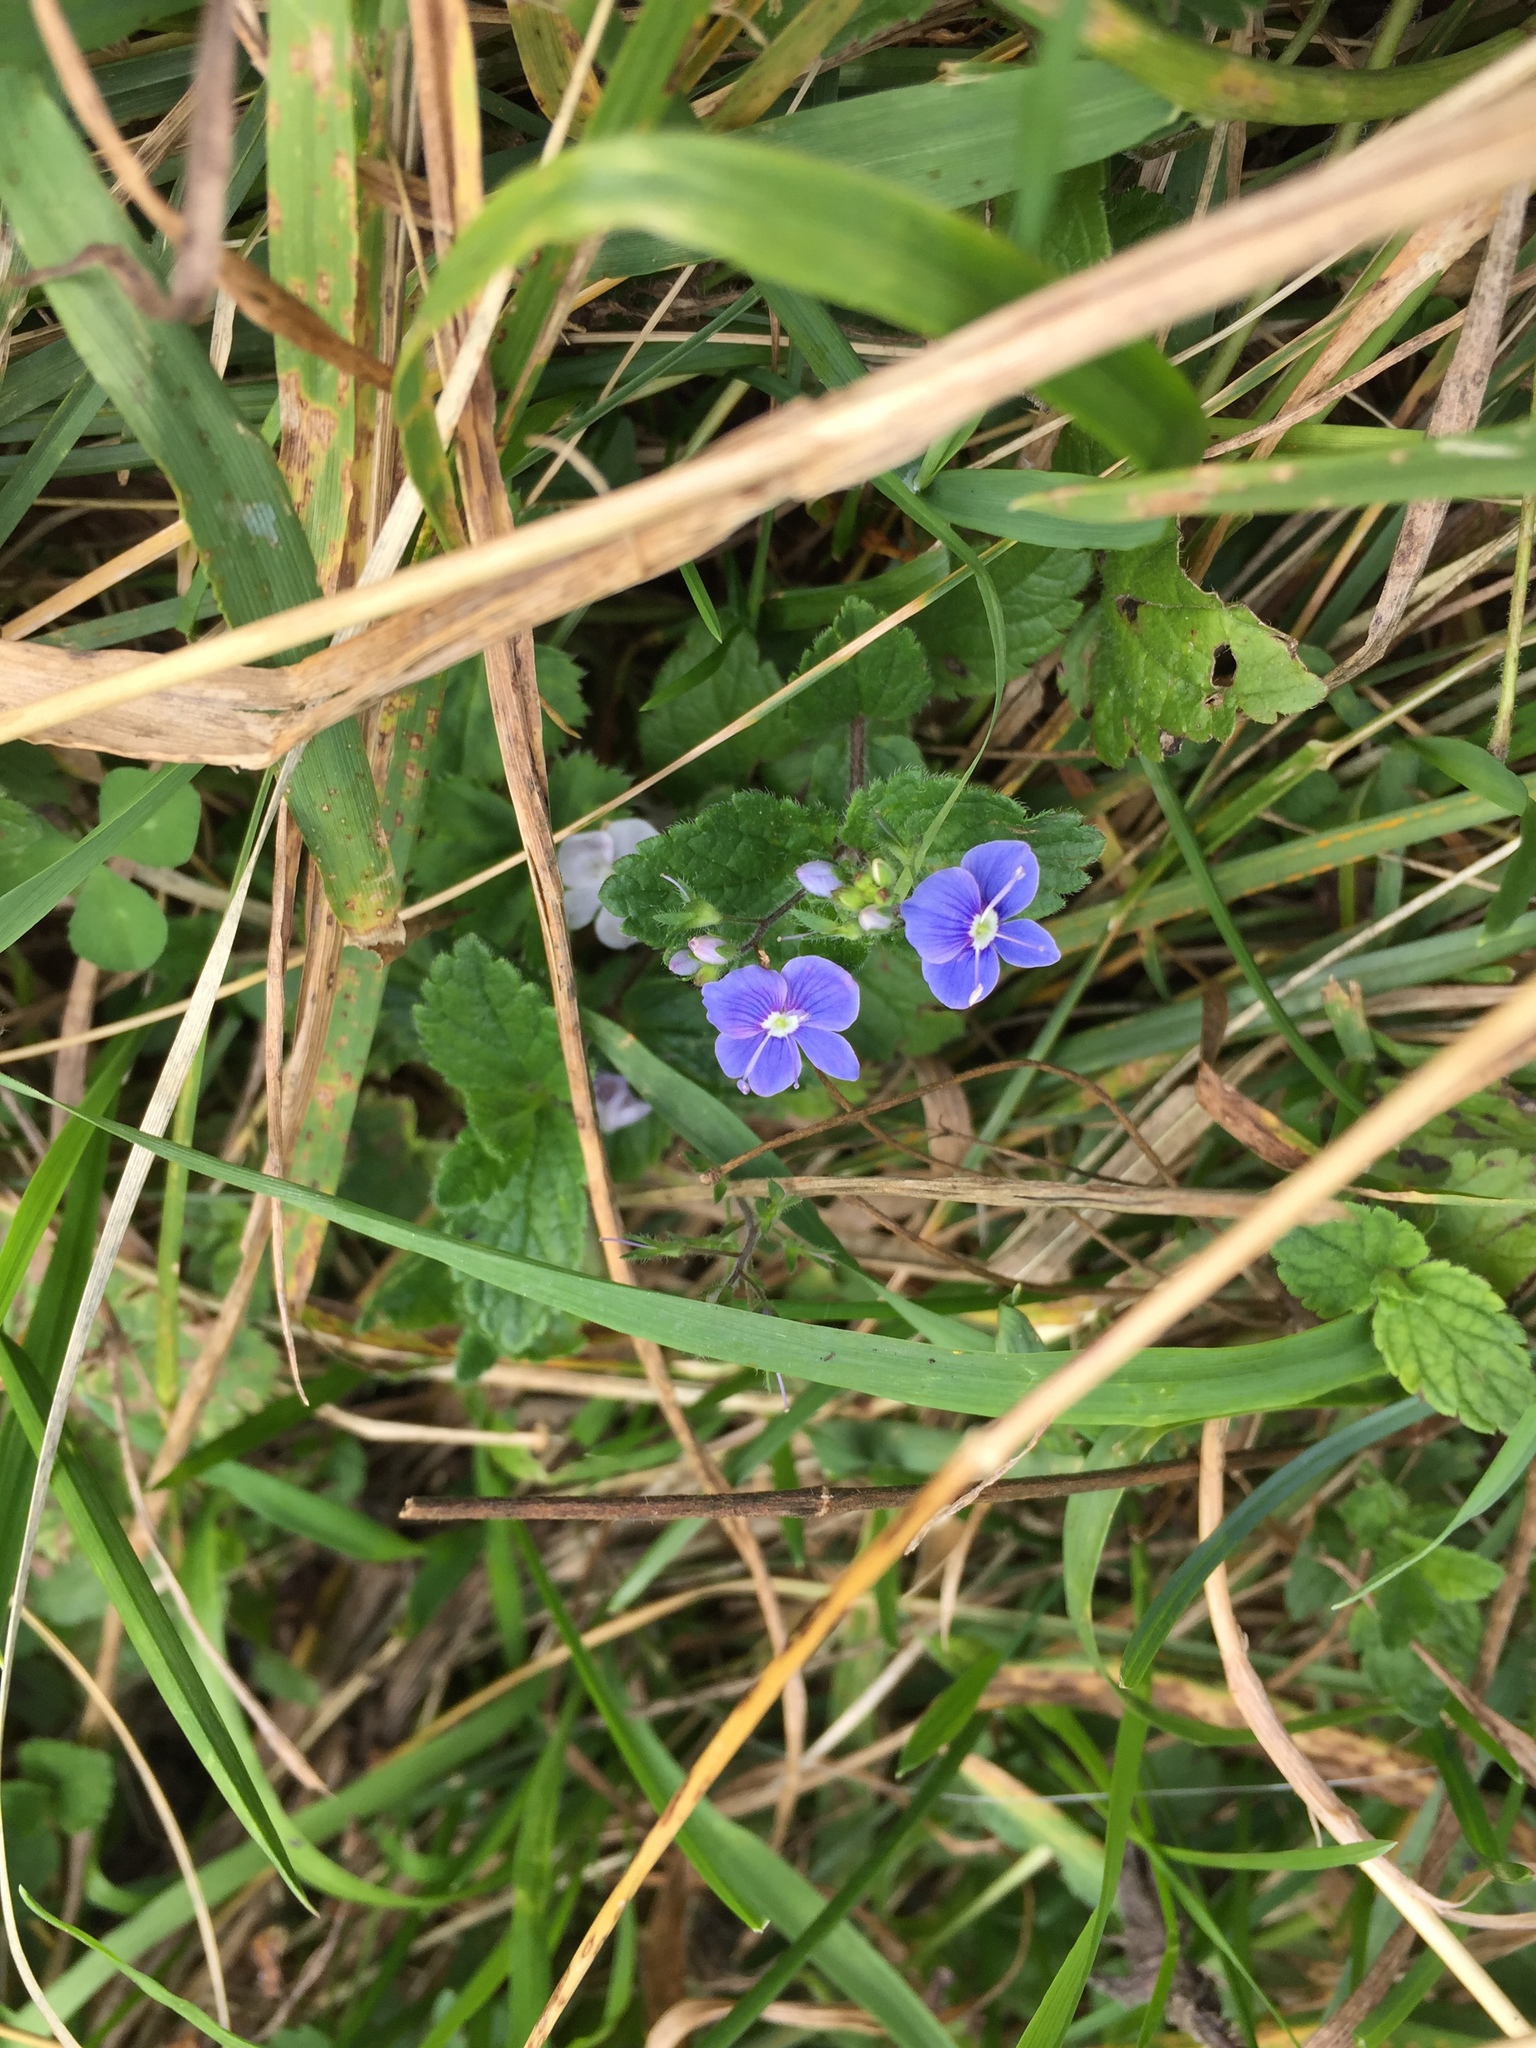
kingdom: Plantae
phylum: Tracheophyta
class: Magnoliopsida
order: Lamiales
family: Plantaginaceae
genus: Veronica
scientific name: Veronica chamaedrys
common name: Germander speedwell
